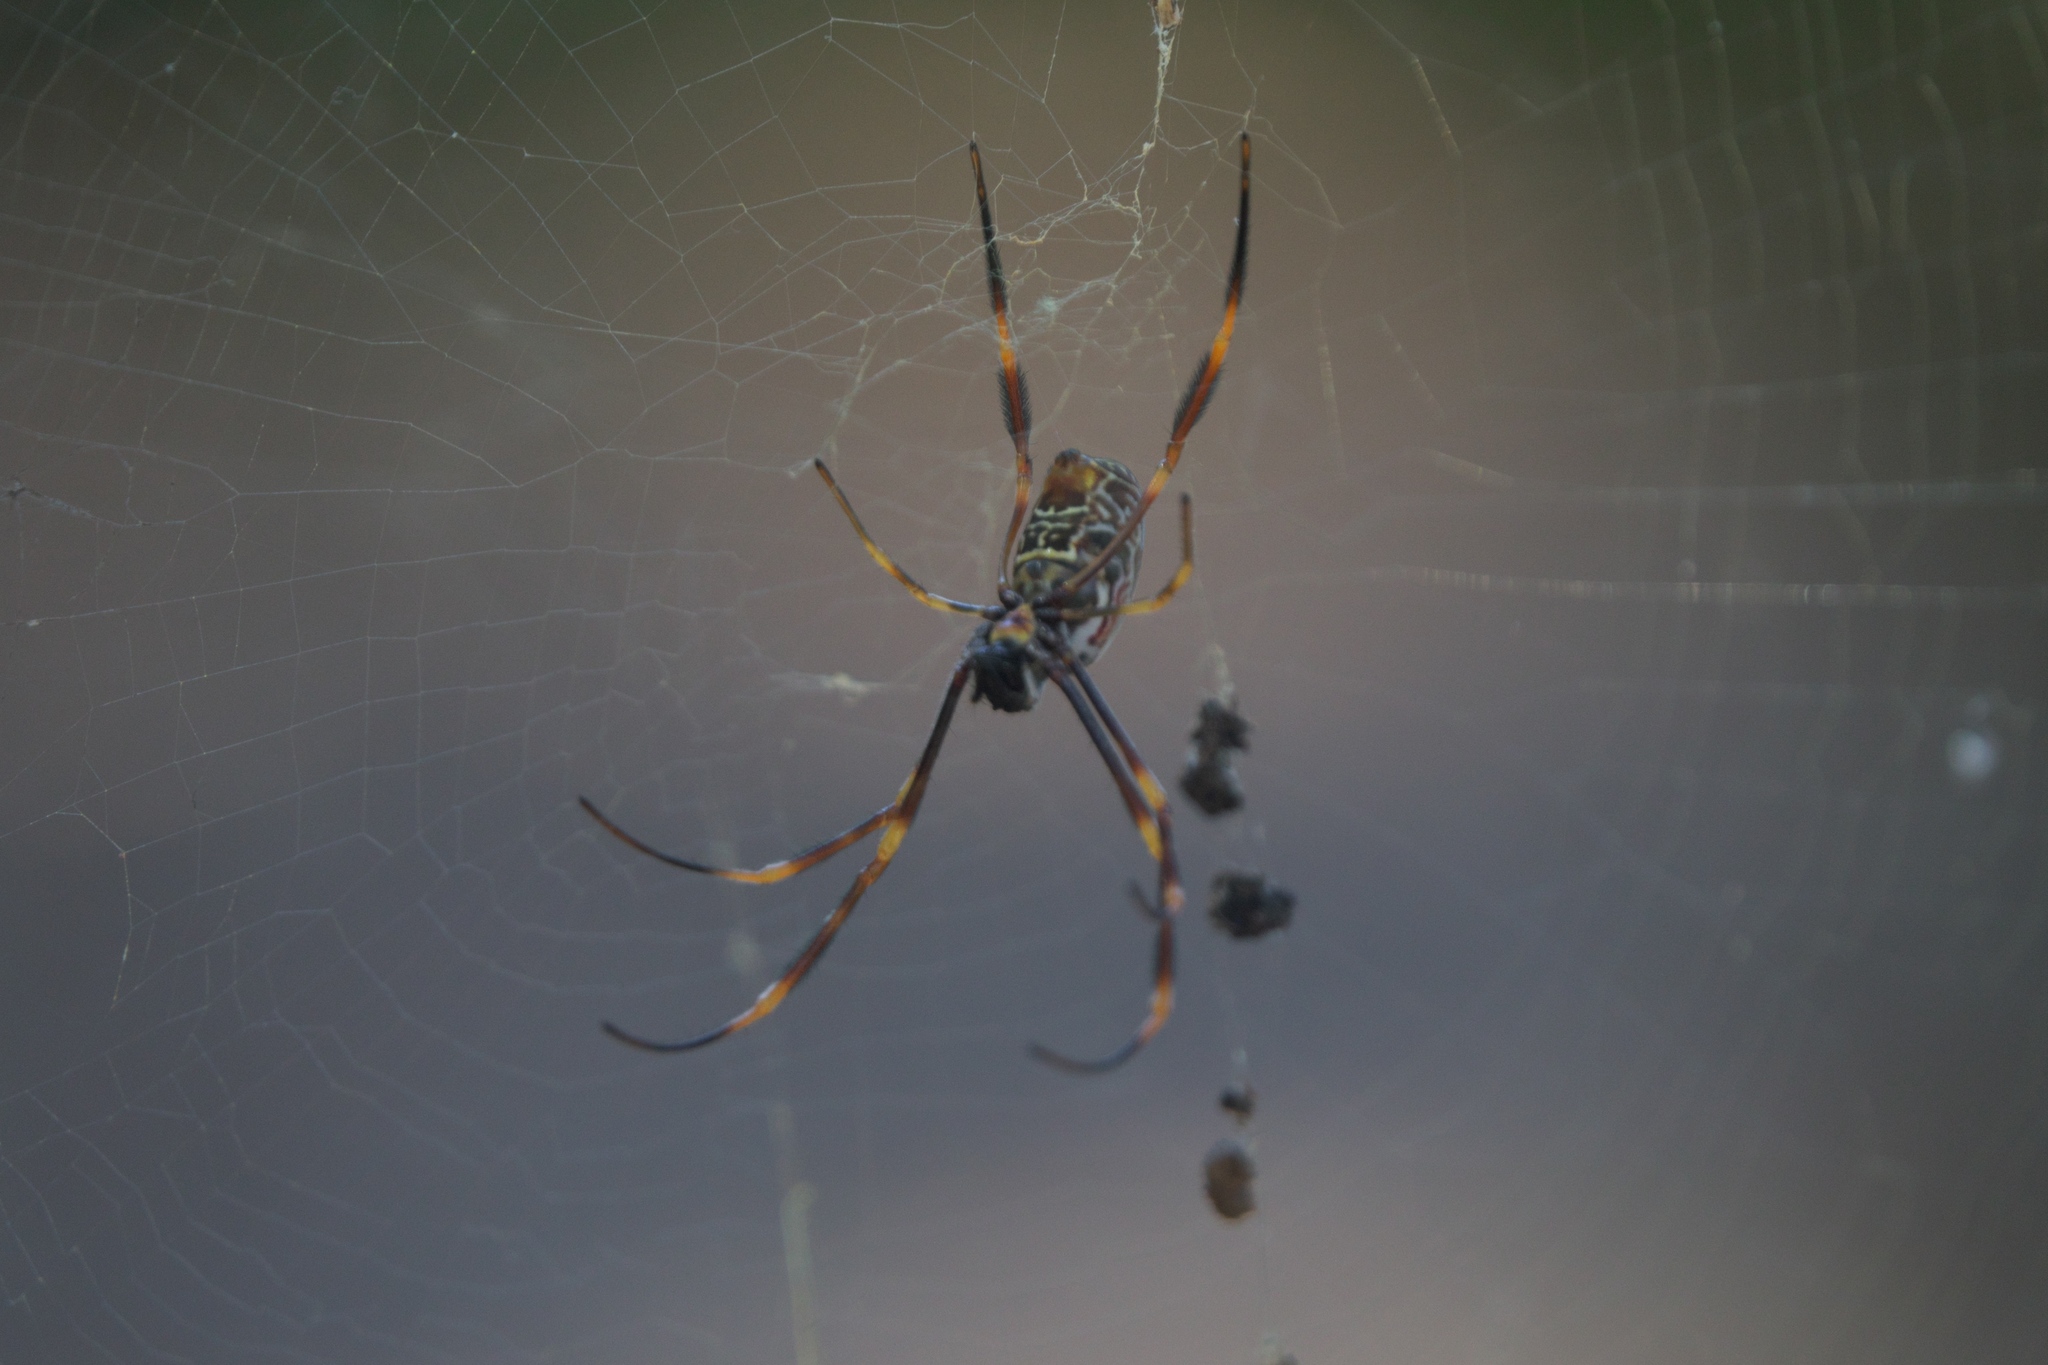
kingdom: Animalia
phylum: Arthropoda
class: Arachnida
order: Araneae
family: Araneidae
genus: Trichonephila
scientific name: Trichonephila plumipes
